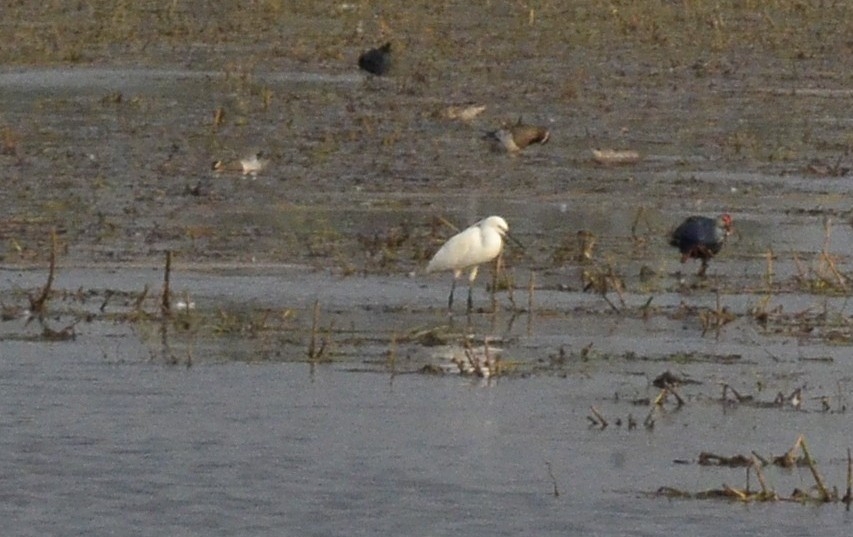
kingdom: Animalia
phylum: Chordata
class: Aves
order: Pelecaniformes
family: Ardeidae
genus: Egretta
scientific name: Egretta garzetta
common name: Little egret
